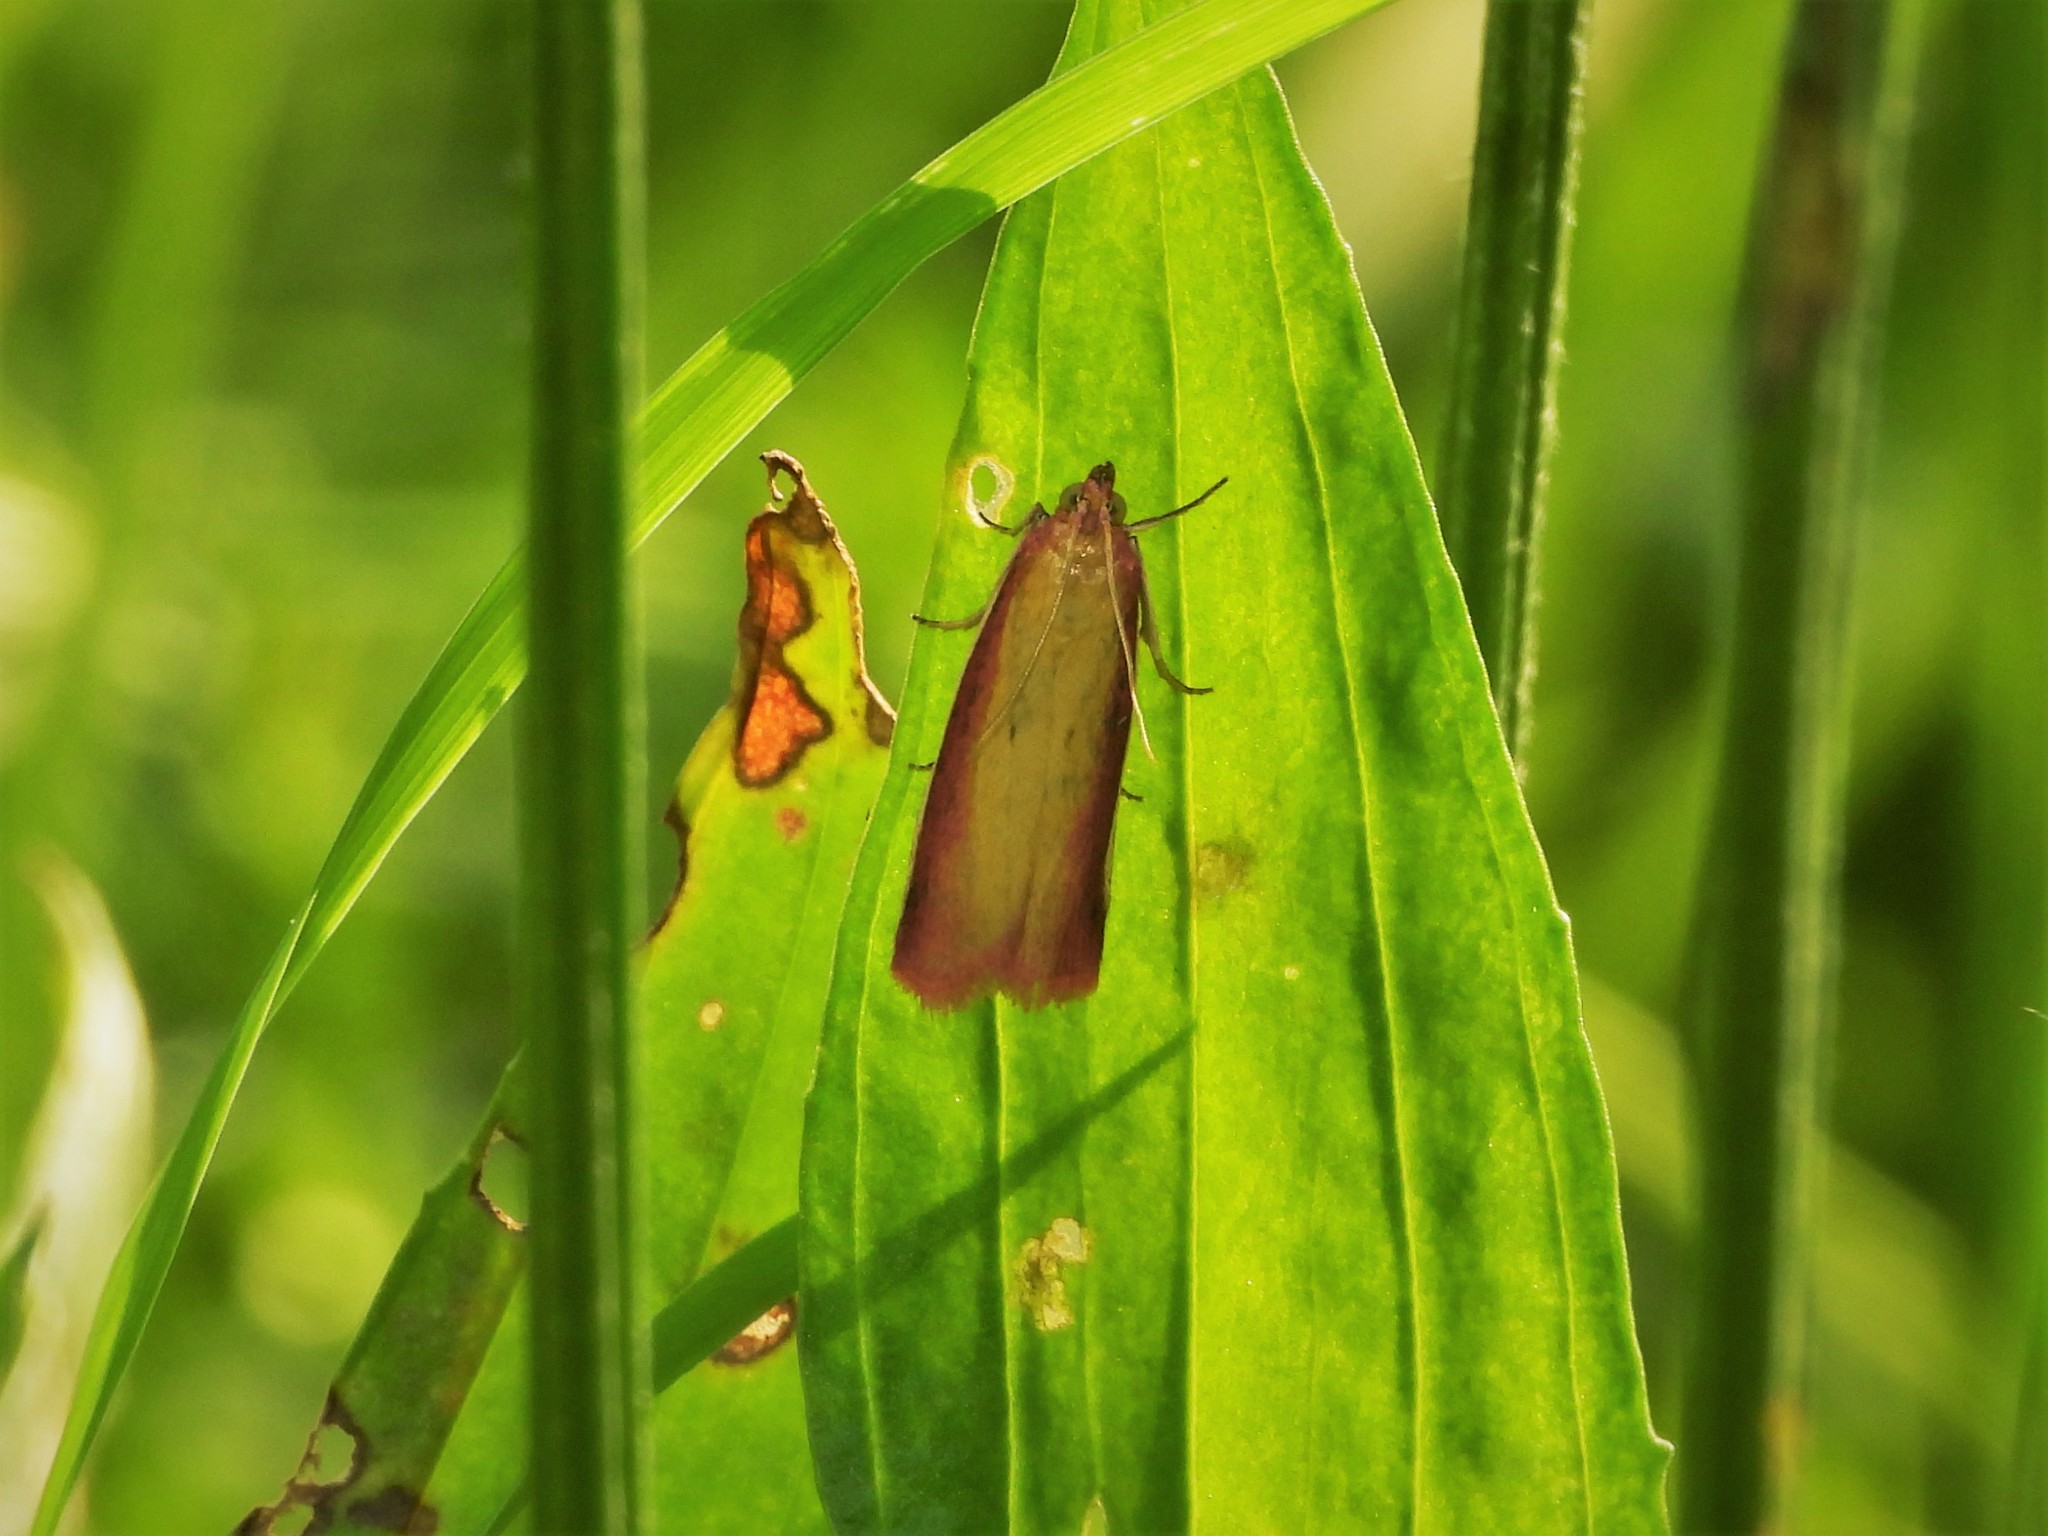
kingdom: Animalia
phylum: Arthropoda
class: Insecta
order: Lepidoptera
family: Pyralidae
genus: Oncocera
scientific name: Oncocera semirubella
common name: Rosy-striped knot-horn
